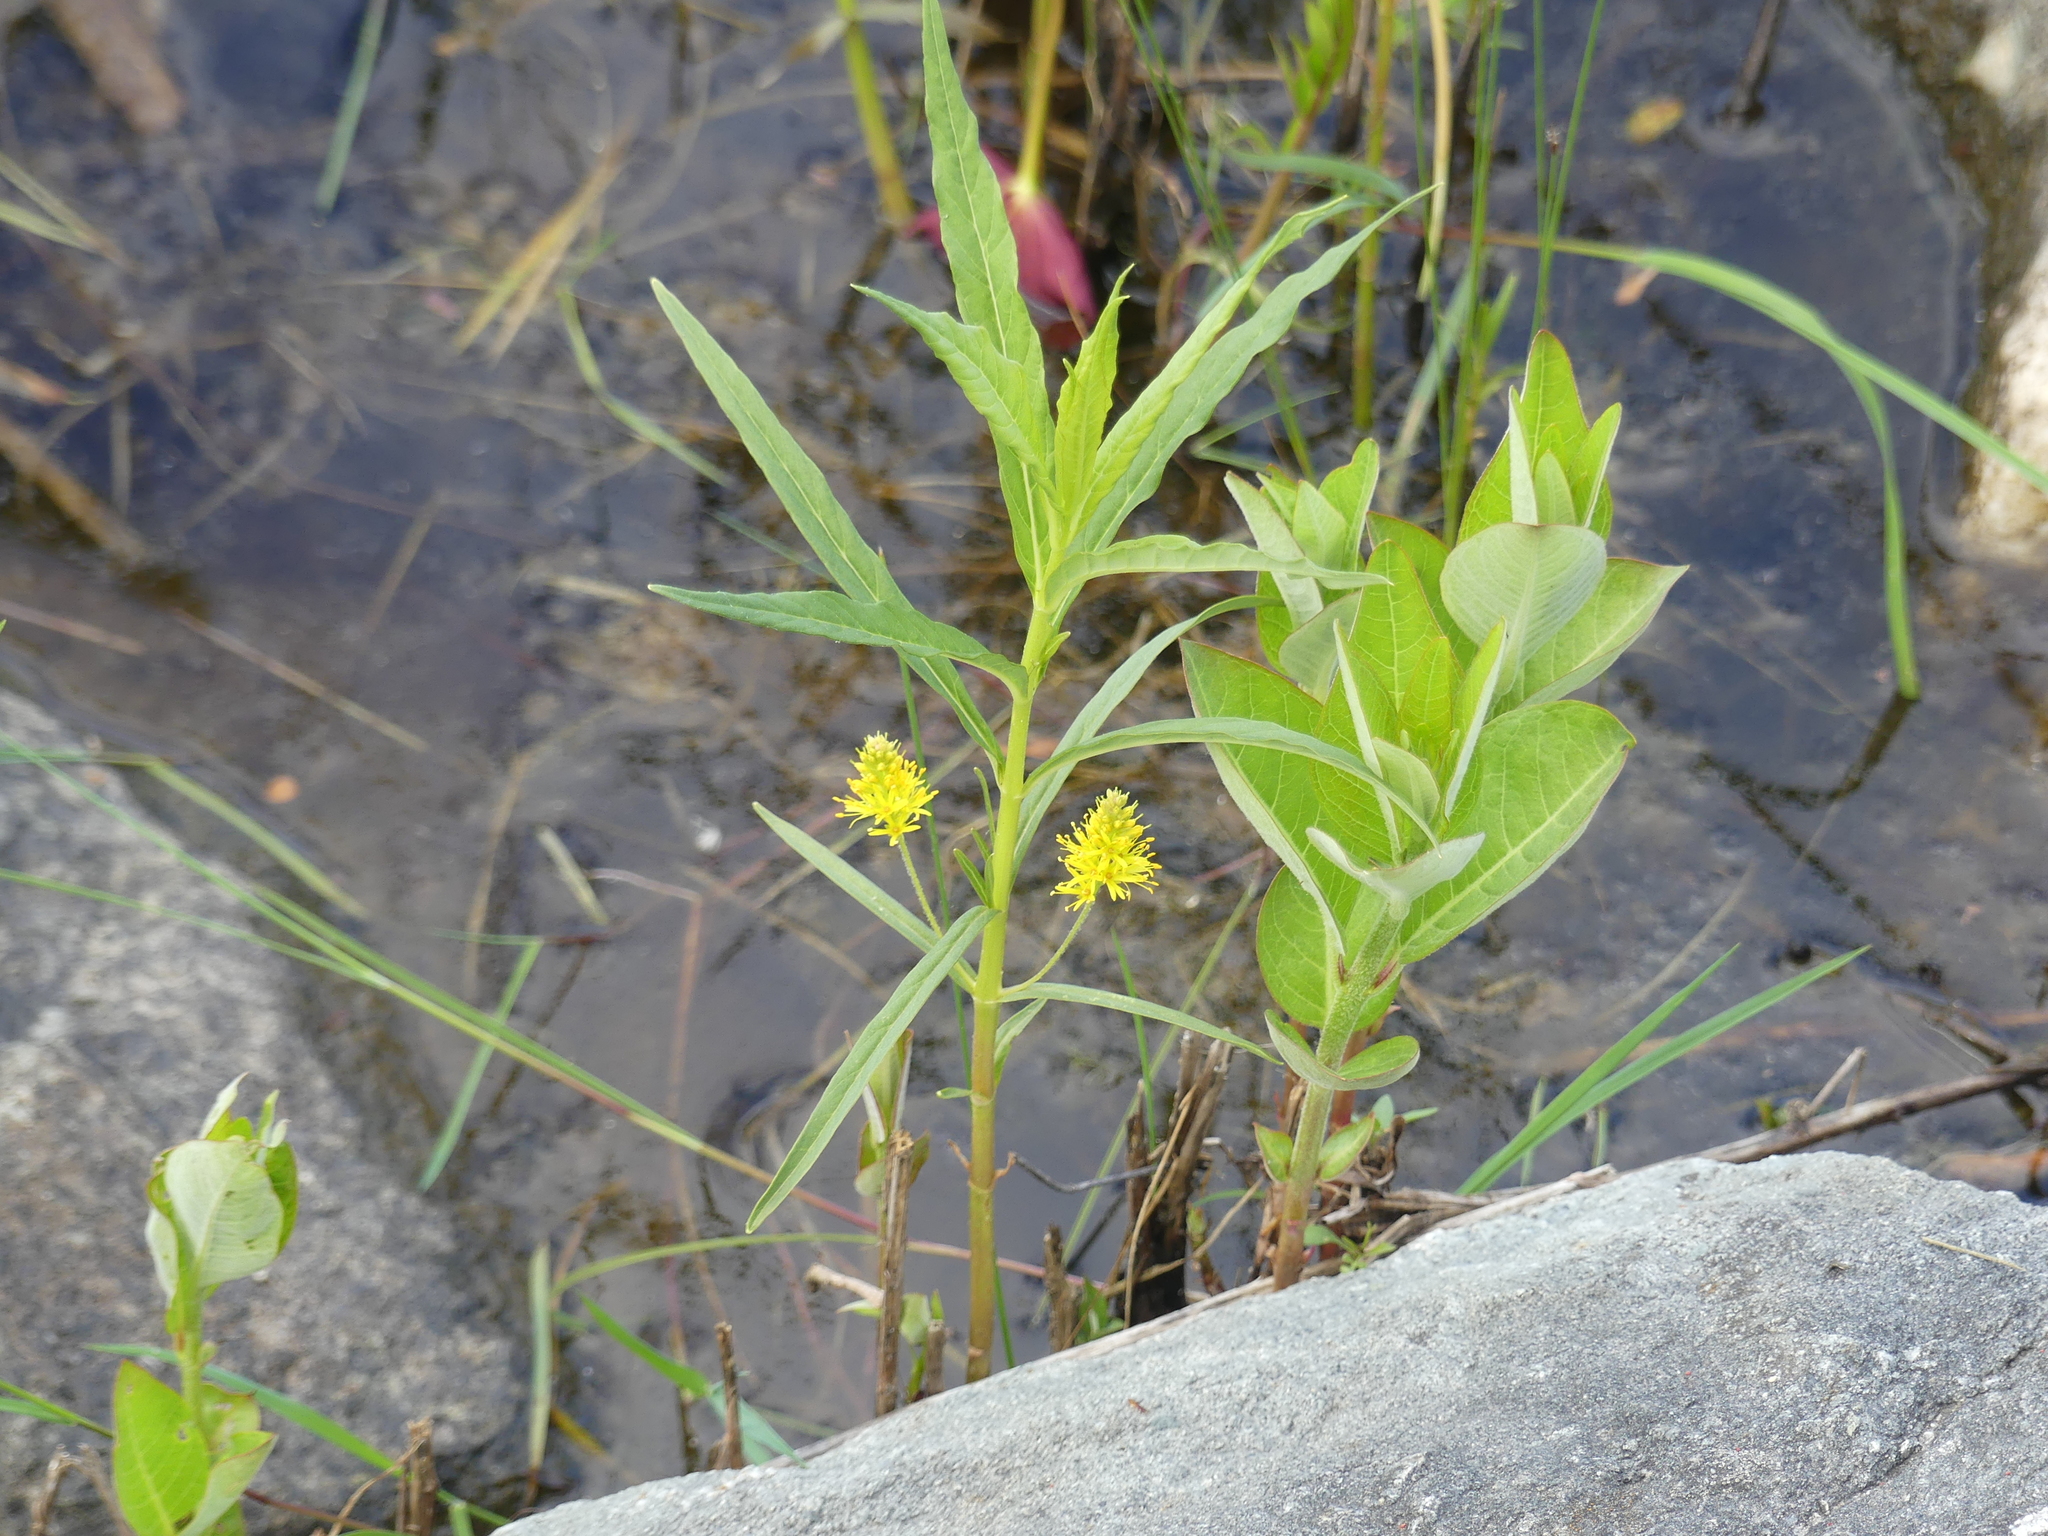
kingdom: Plantae
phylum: Tracheophyta
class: Magnoliopsida
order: Ericales
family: Primulaceae
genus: Lysimachia
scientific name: Lysimachia thyrsiflora
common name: Tufted loosestrife
